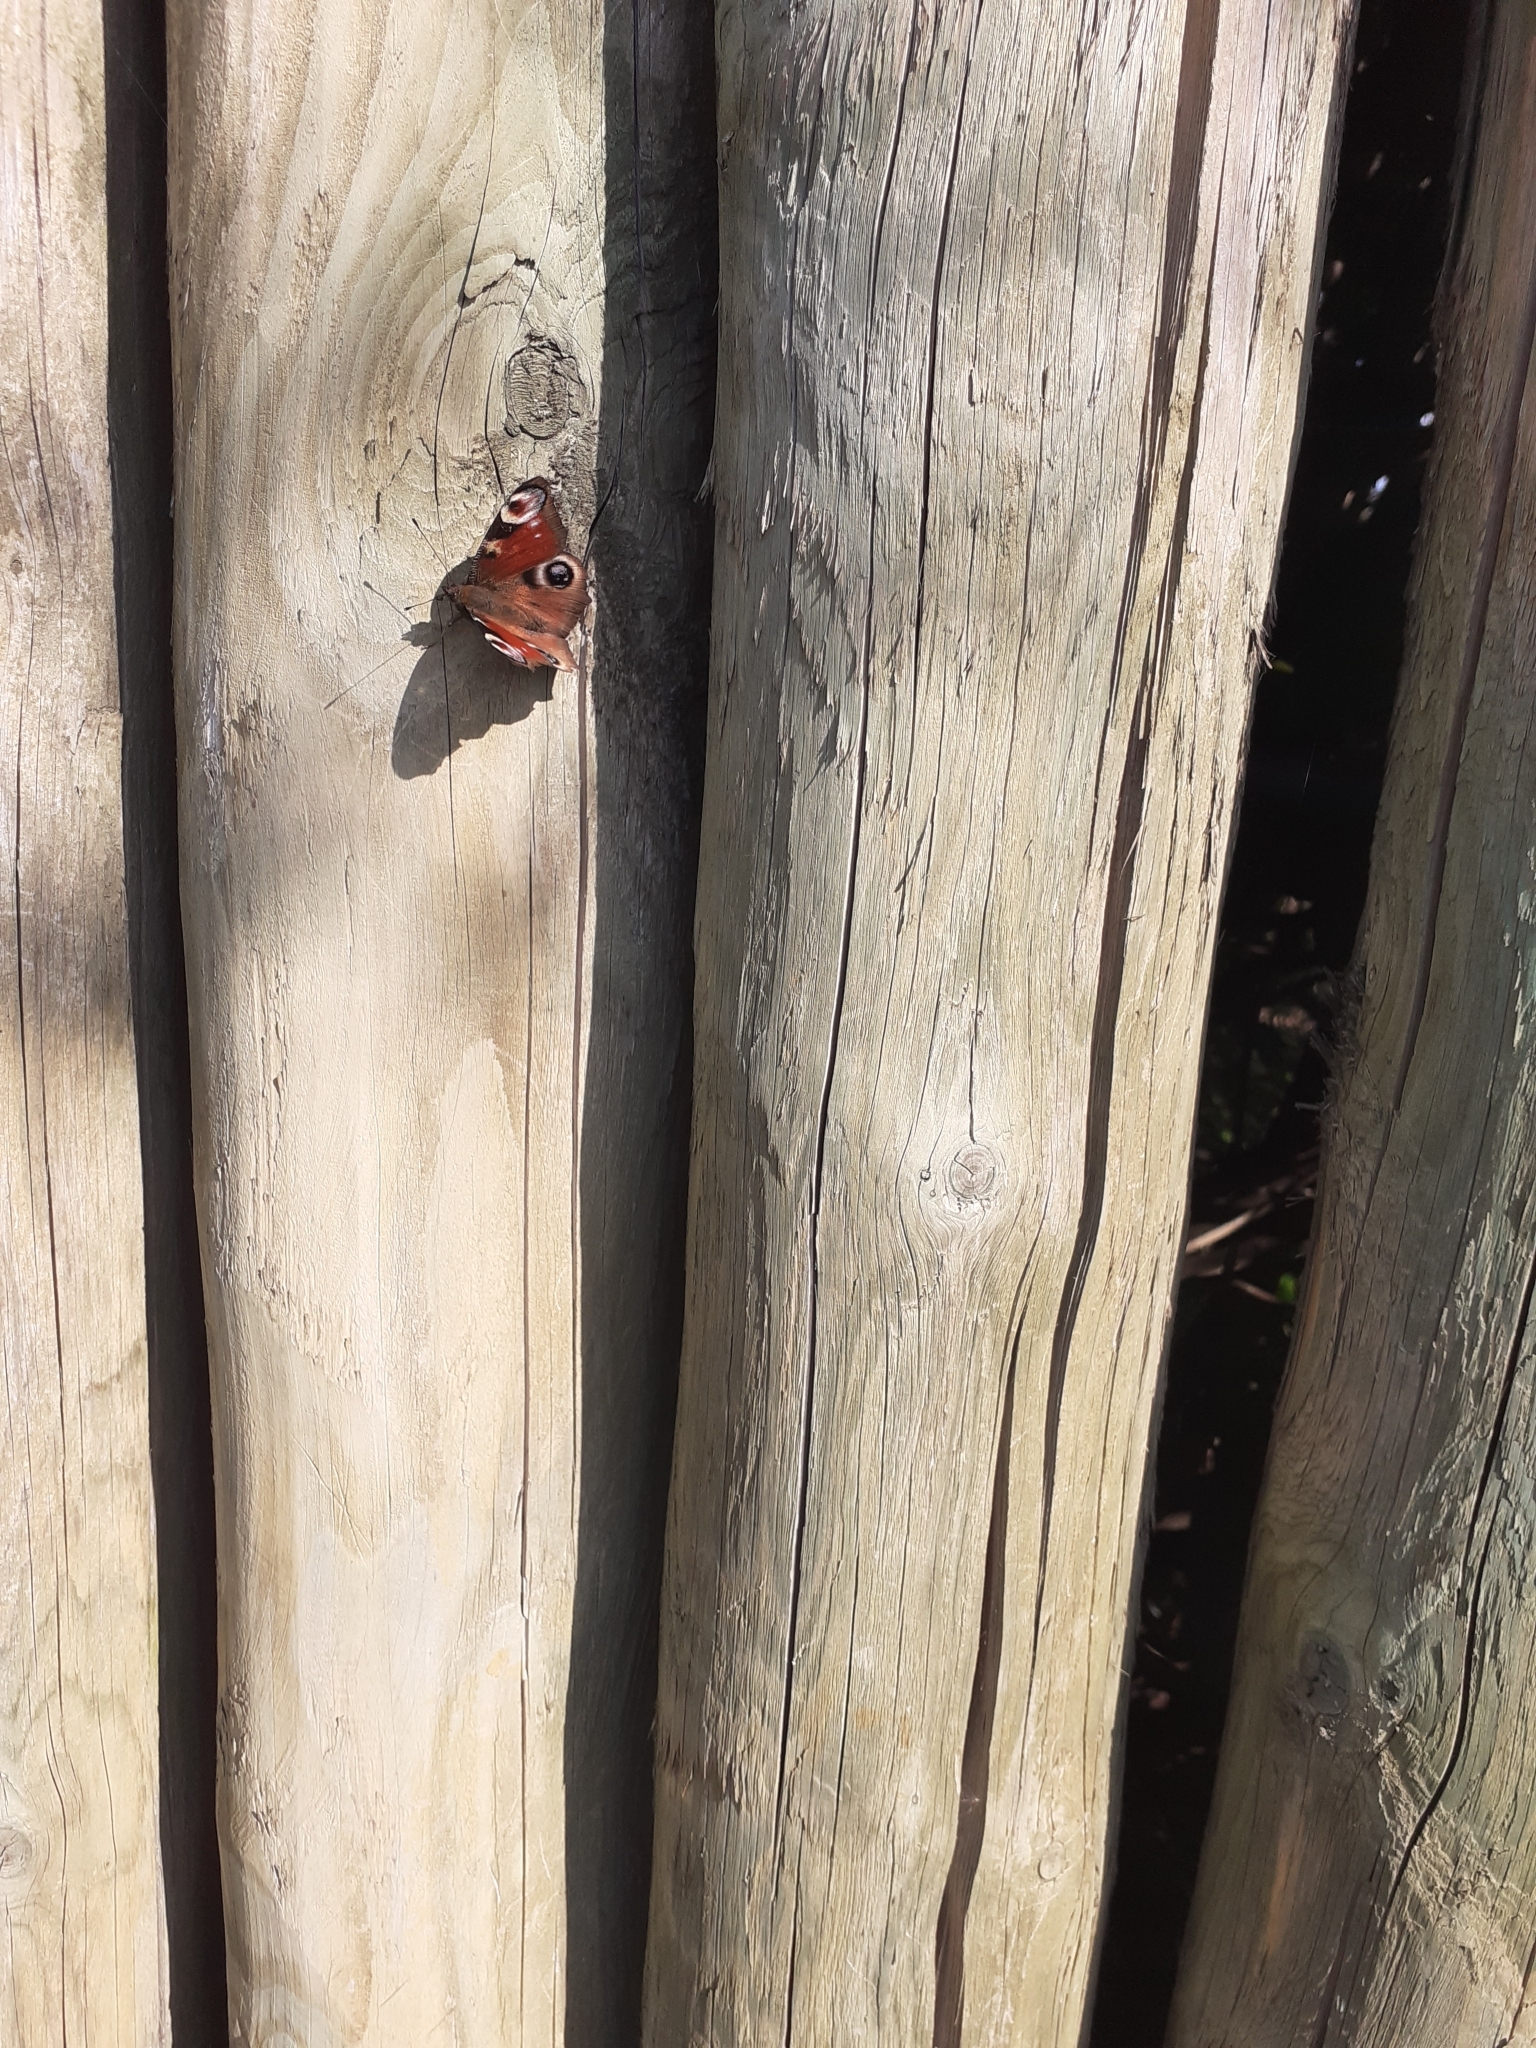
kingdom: Animalia
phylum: Arthropoda
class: Insecta
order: Lepidoptera
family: Nymphalidae
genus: Aglais
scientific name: Aglais io
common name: Peacock
